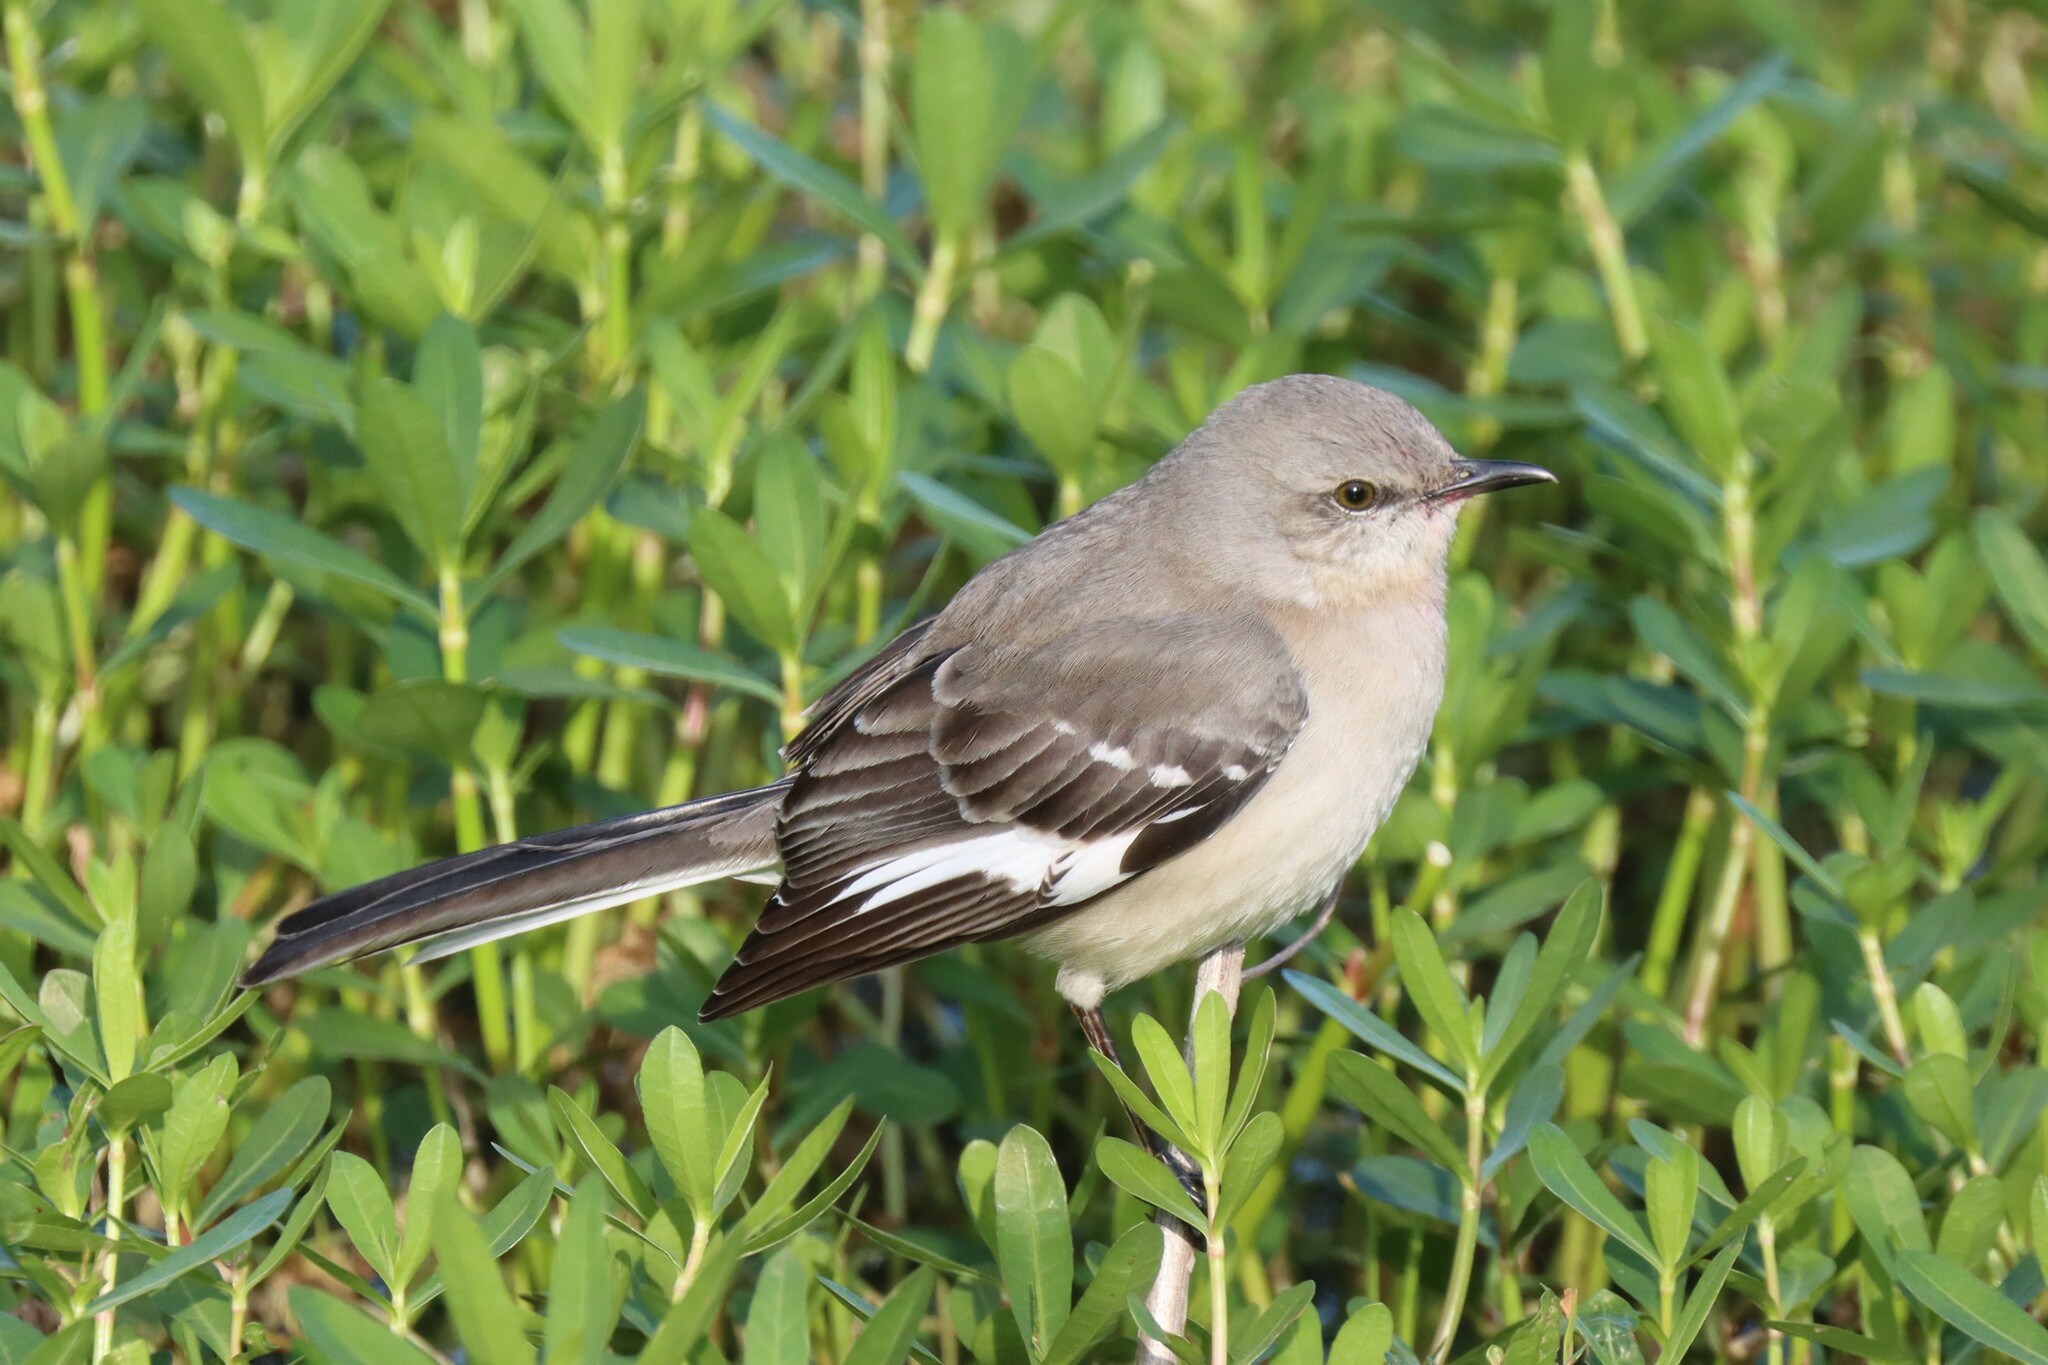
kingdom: Animalia
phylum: Chordata
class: Aves
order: Passeriformes
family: Mimidae
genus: Mimus
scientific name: Mimus polyglottos
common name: Northern mockingbird
